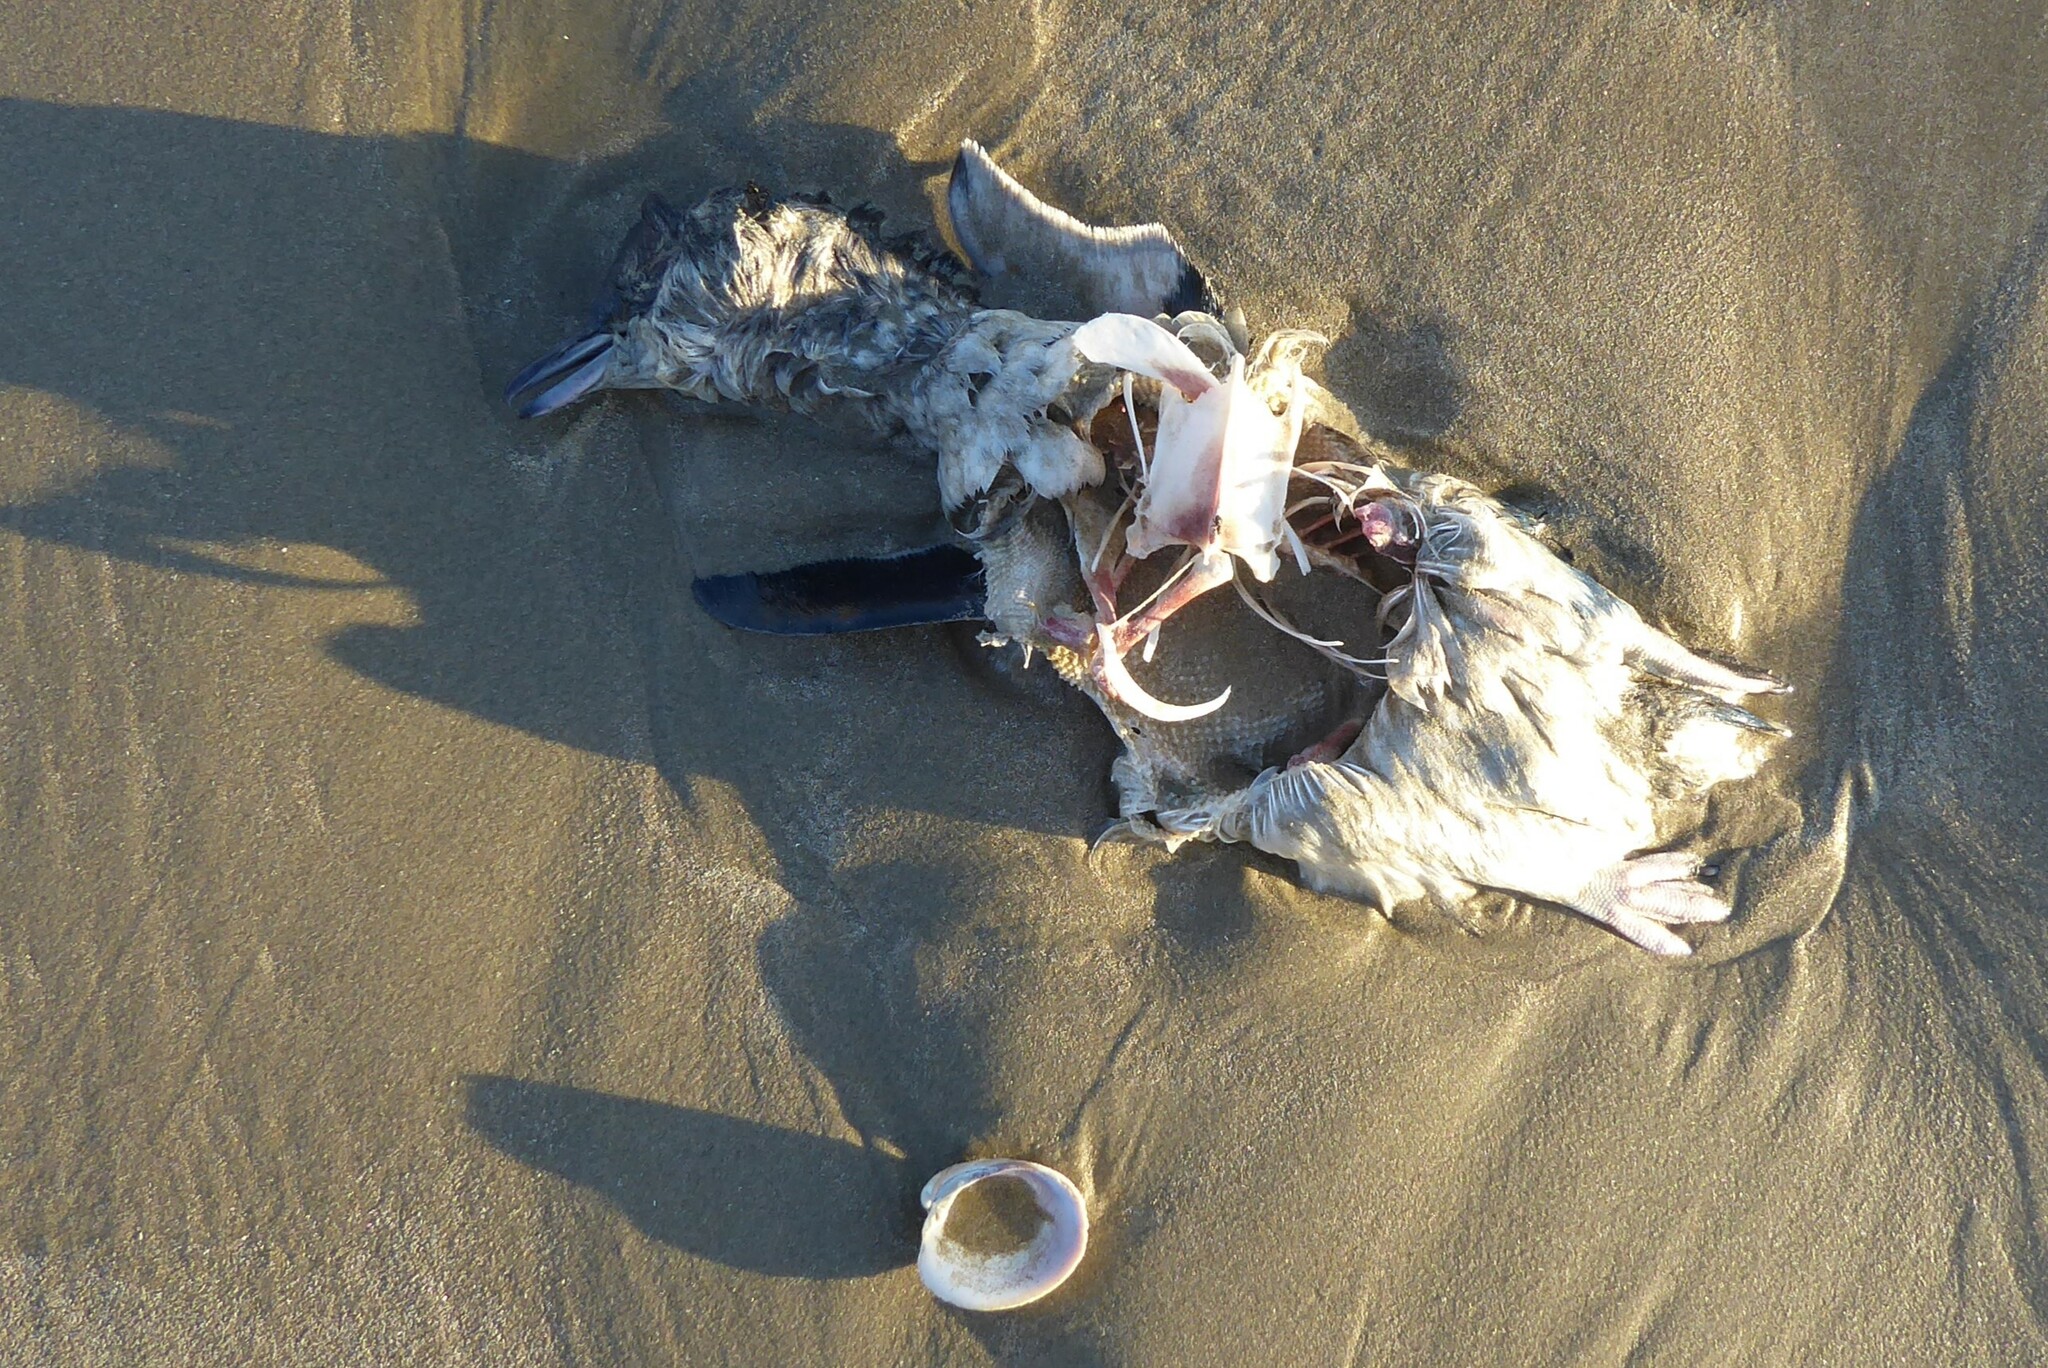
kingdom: Animalia
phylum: Chordata
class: Aves
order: Sphenisciformes
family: Spheniscidae
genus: Eudyptula
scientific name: Eudyptula minor
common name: Little penguin
